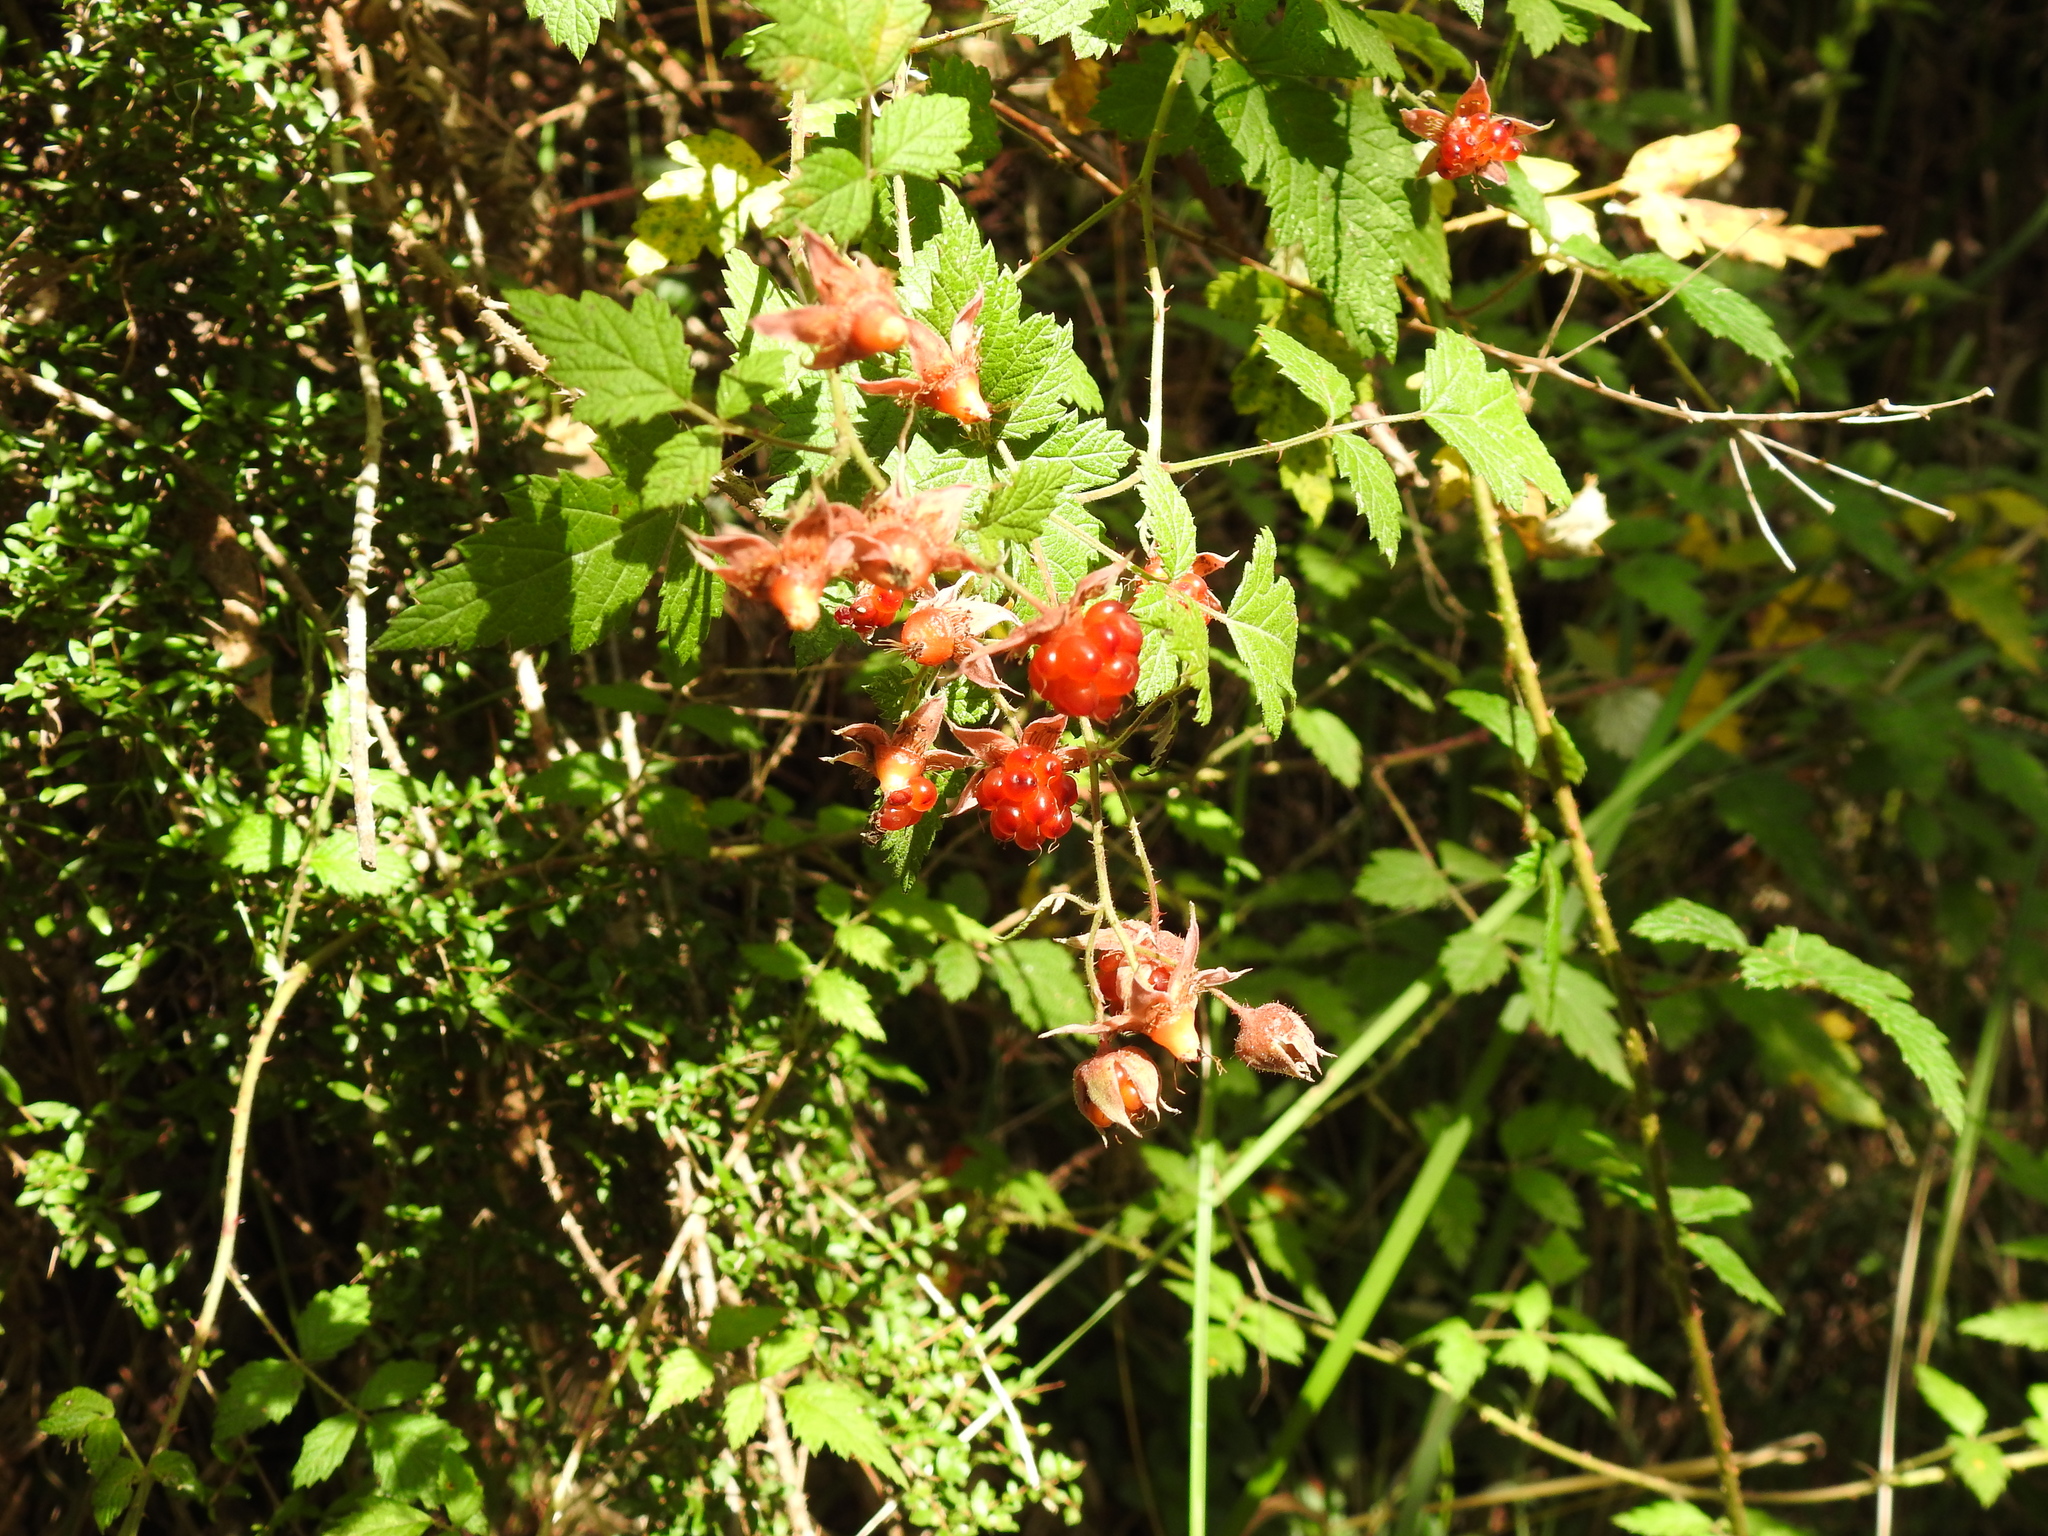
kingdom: Plantae
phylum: Tracheophyta
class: Magnoliopsida
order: Rosales
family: Rosaceae
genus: Rubus
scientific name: Rubus parvifolius
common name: Threeleaf blackberry
